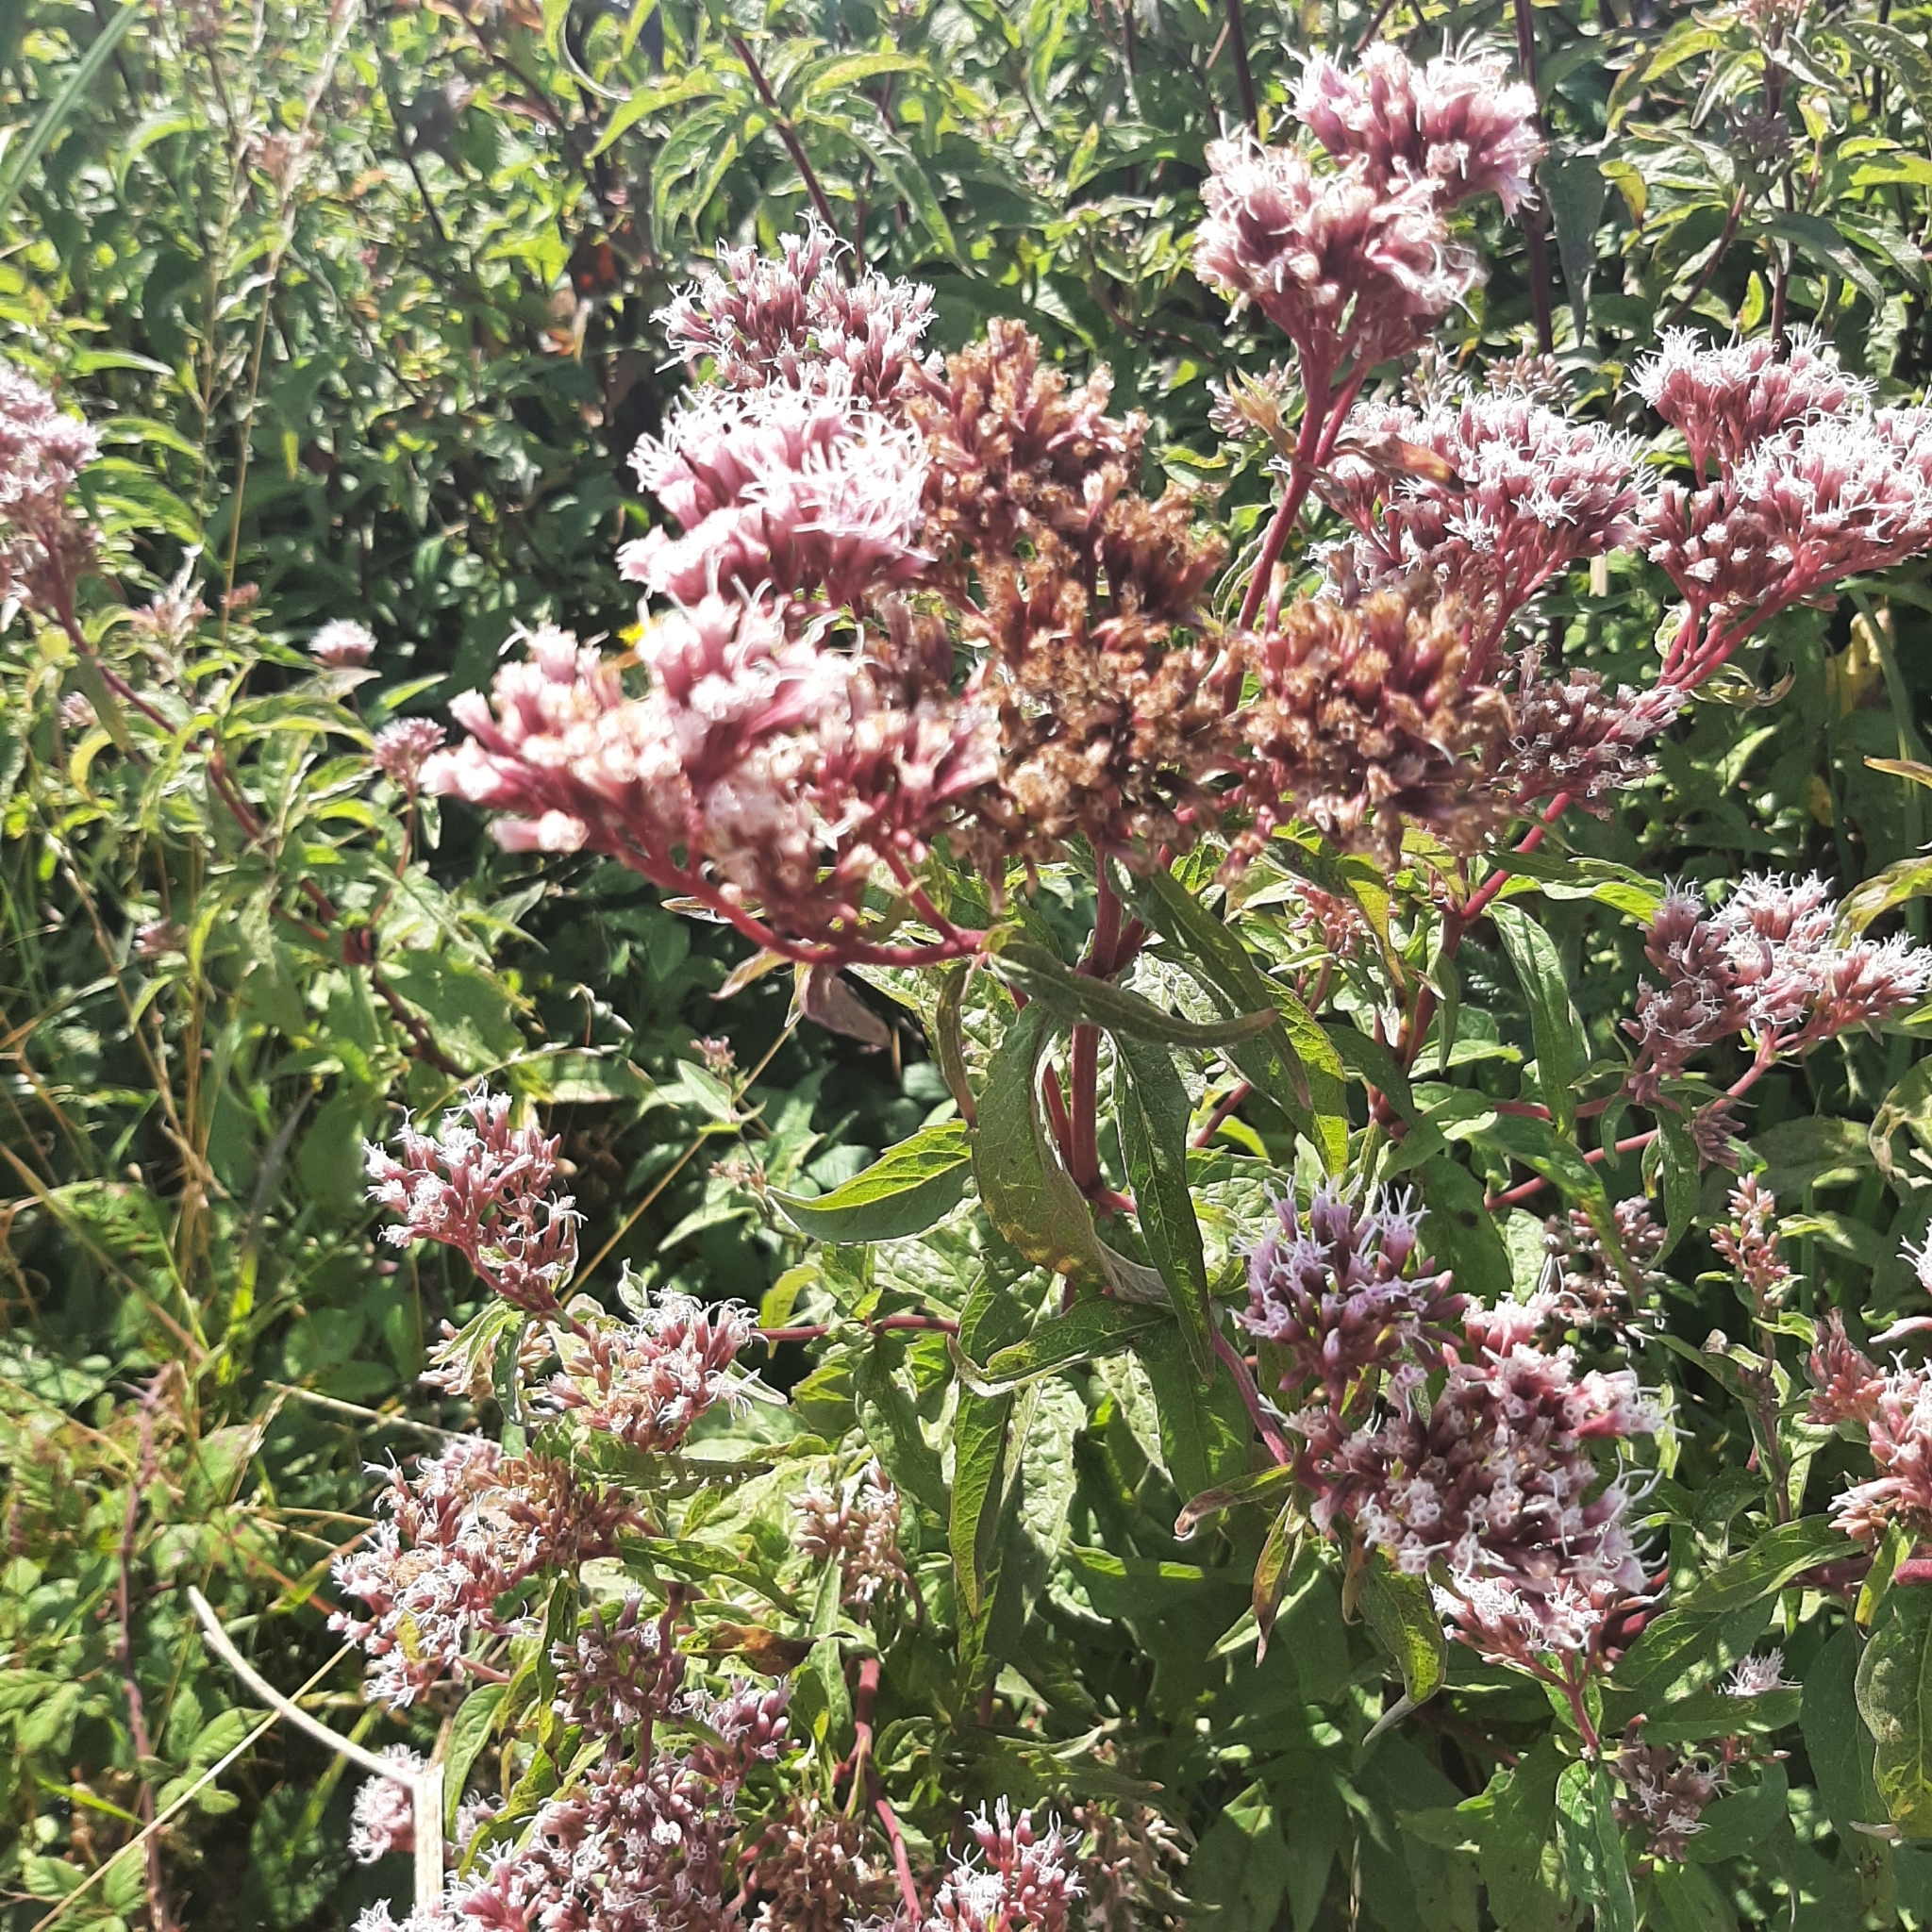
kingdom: Plantae
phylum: Tracheophyta
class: Magnoliopsida
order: Asterales
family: Asteraceae
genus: Eupatorium
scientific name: Eupatorium cannabinum
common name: Hemp-agrimony
